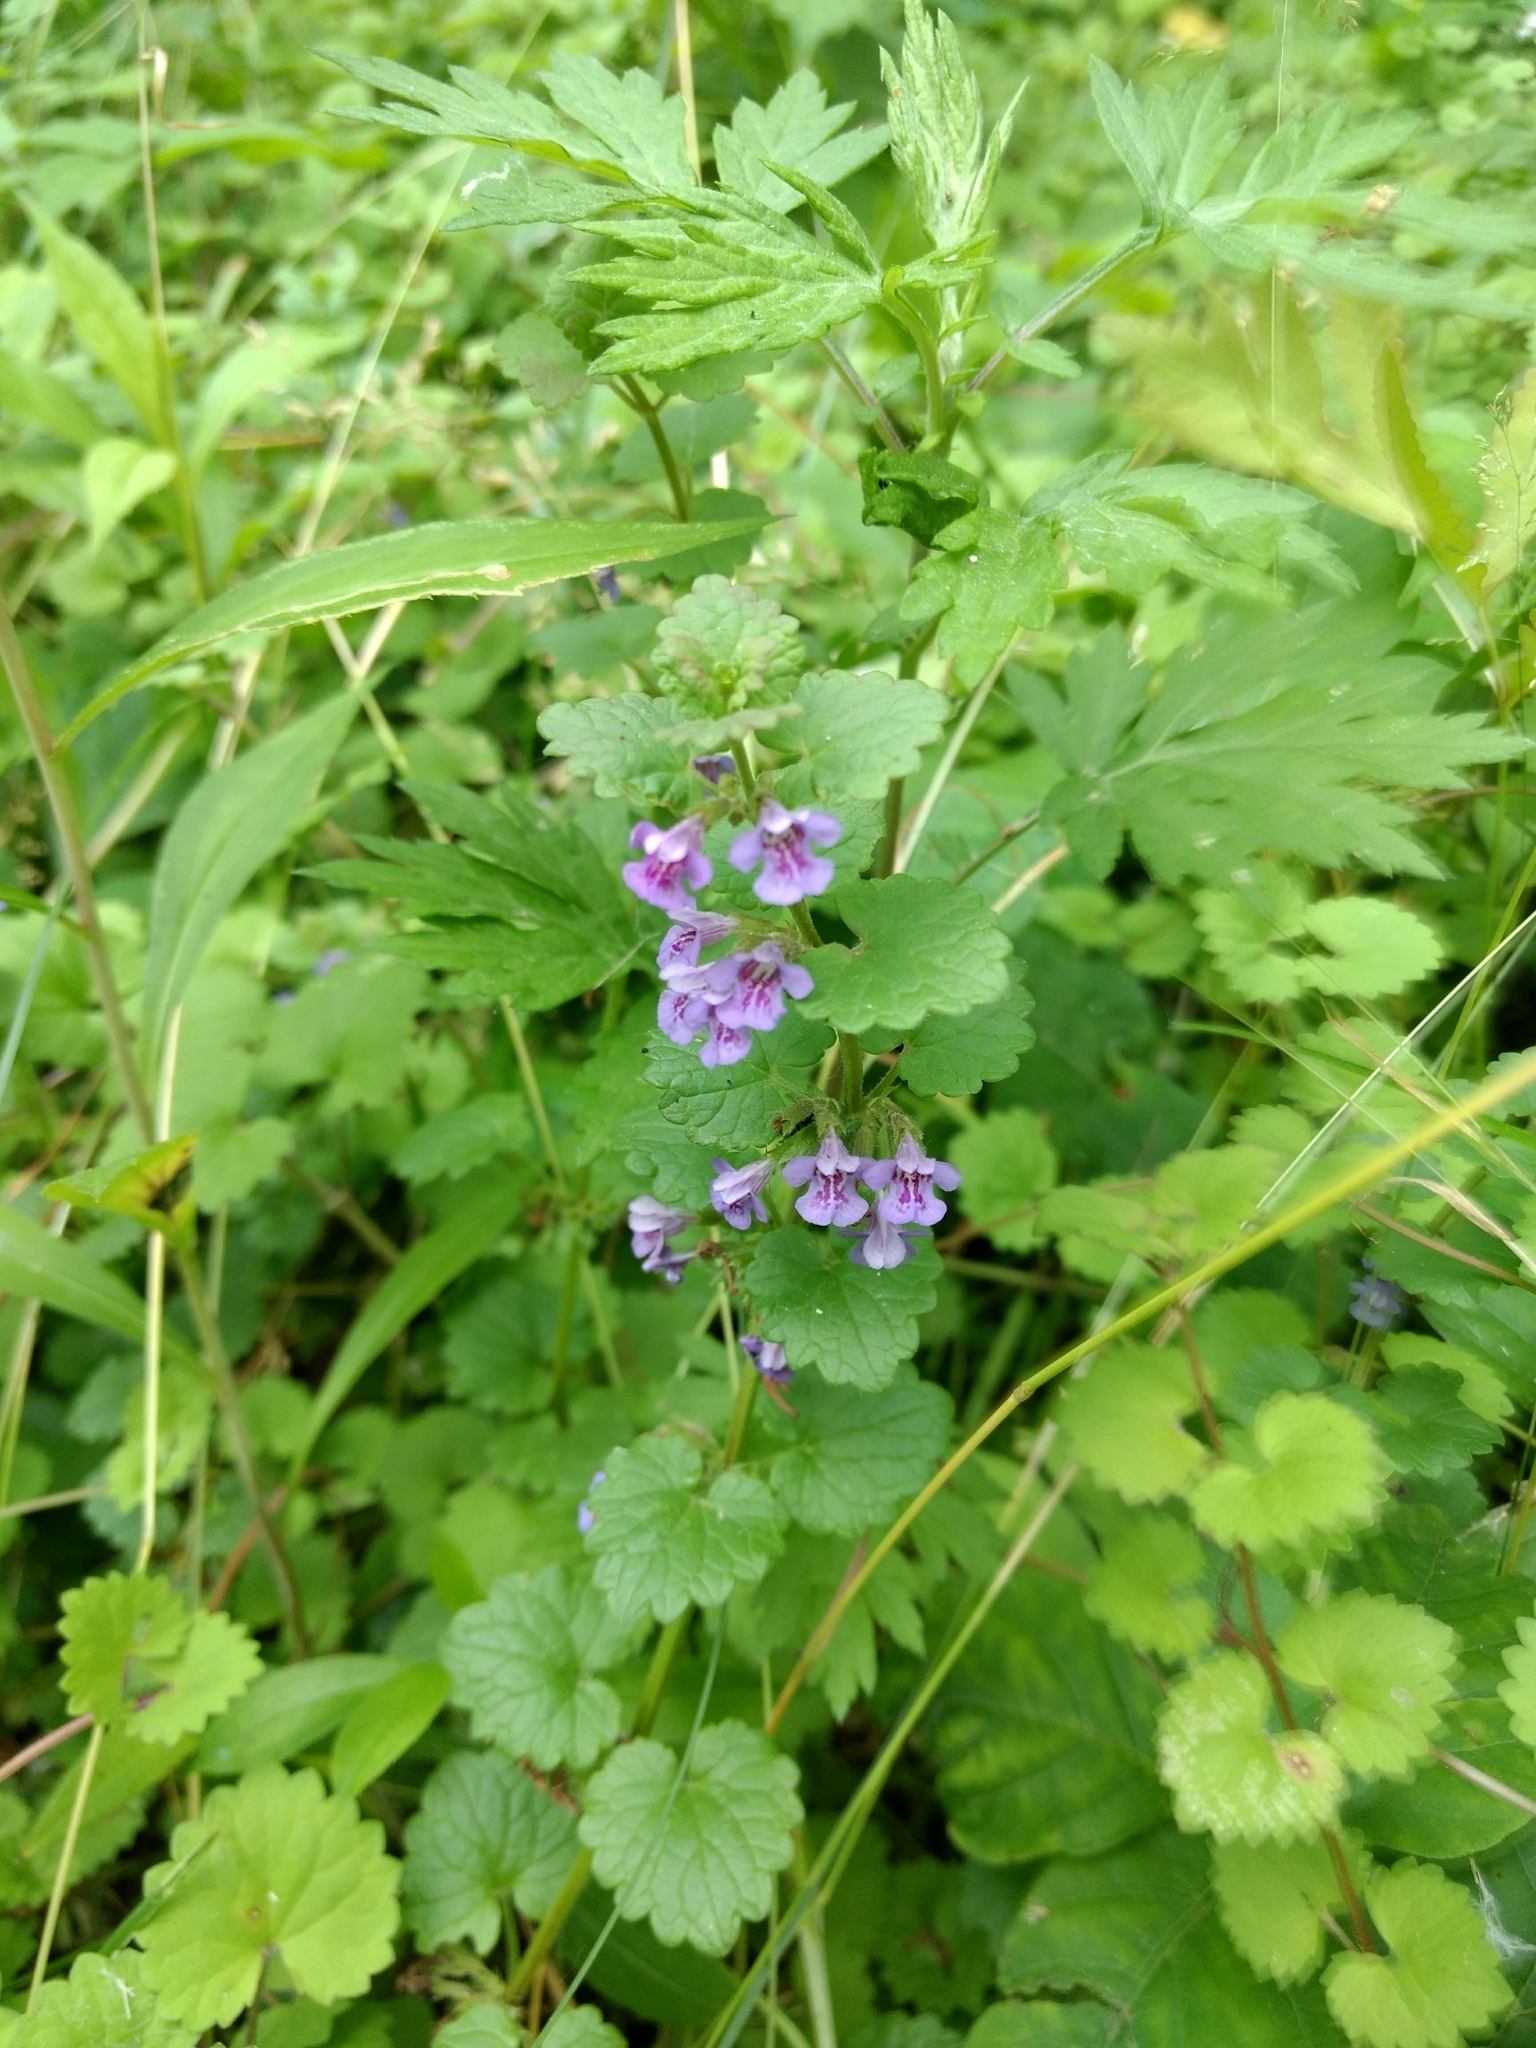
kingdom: Plantae
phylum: Tracheophyta
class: Magnoliopsida
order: Lamiales
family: Lamiaceae
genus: Glechoma
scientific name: Glechoma hederacea
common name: Ground ivy
